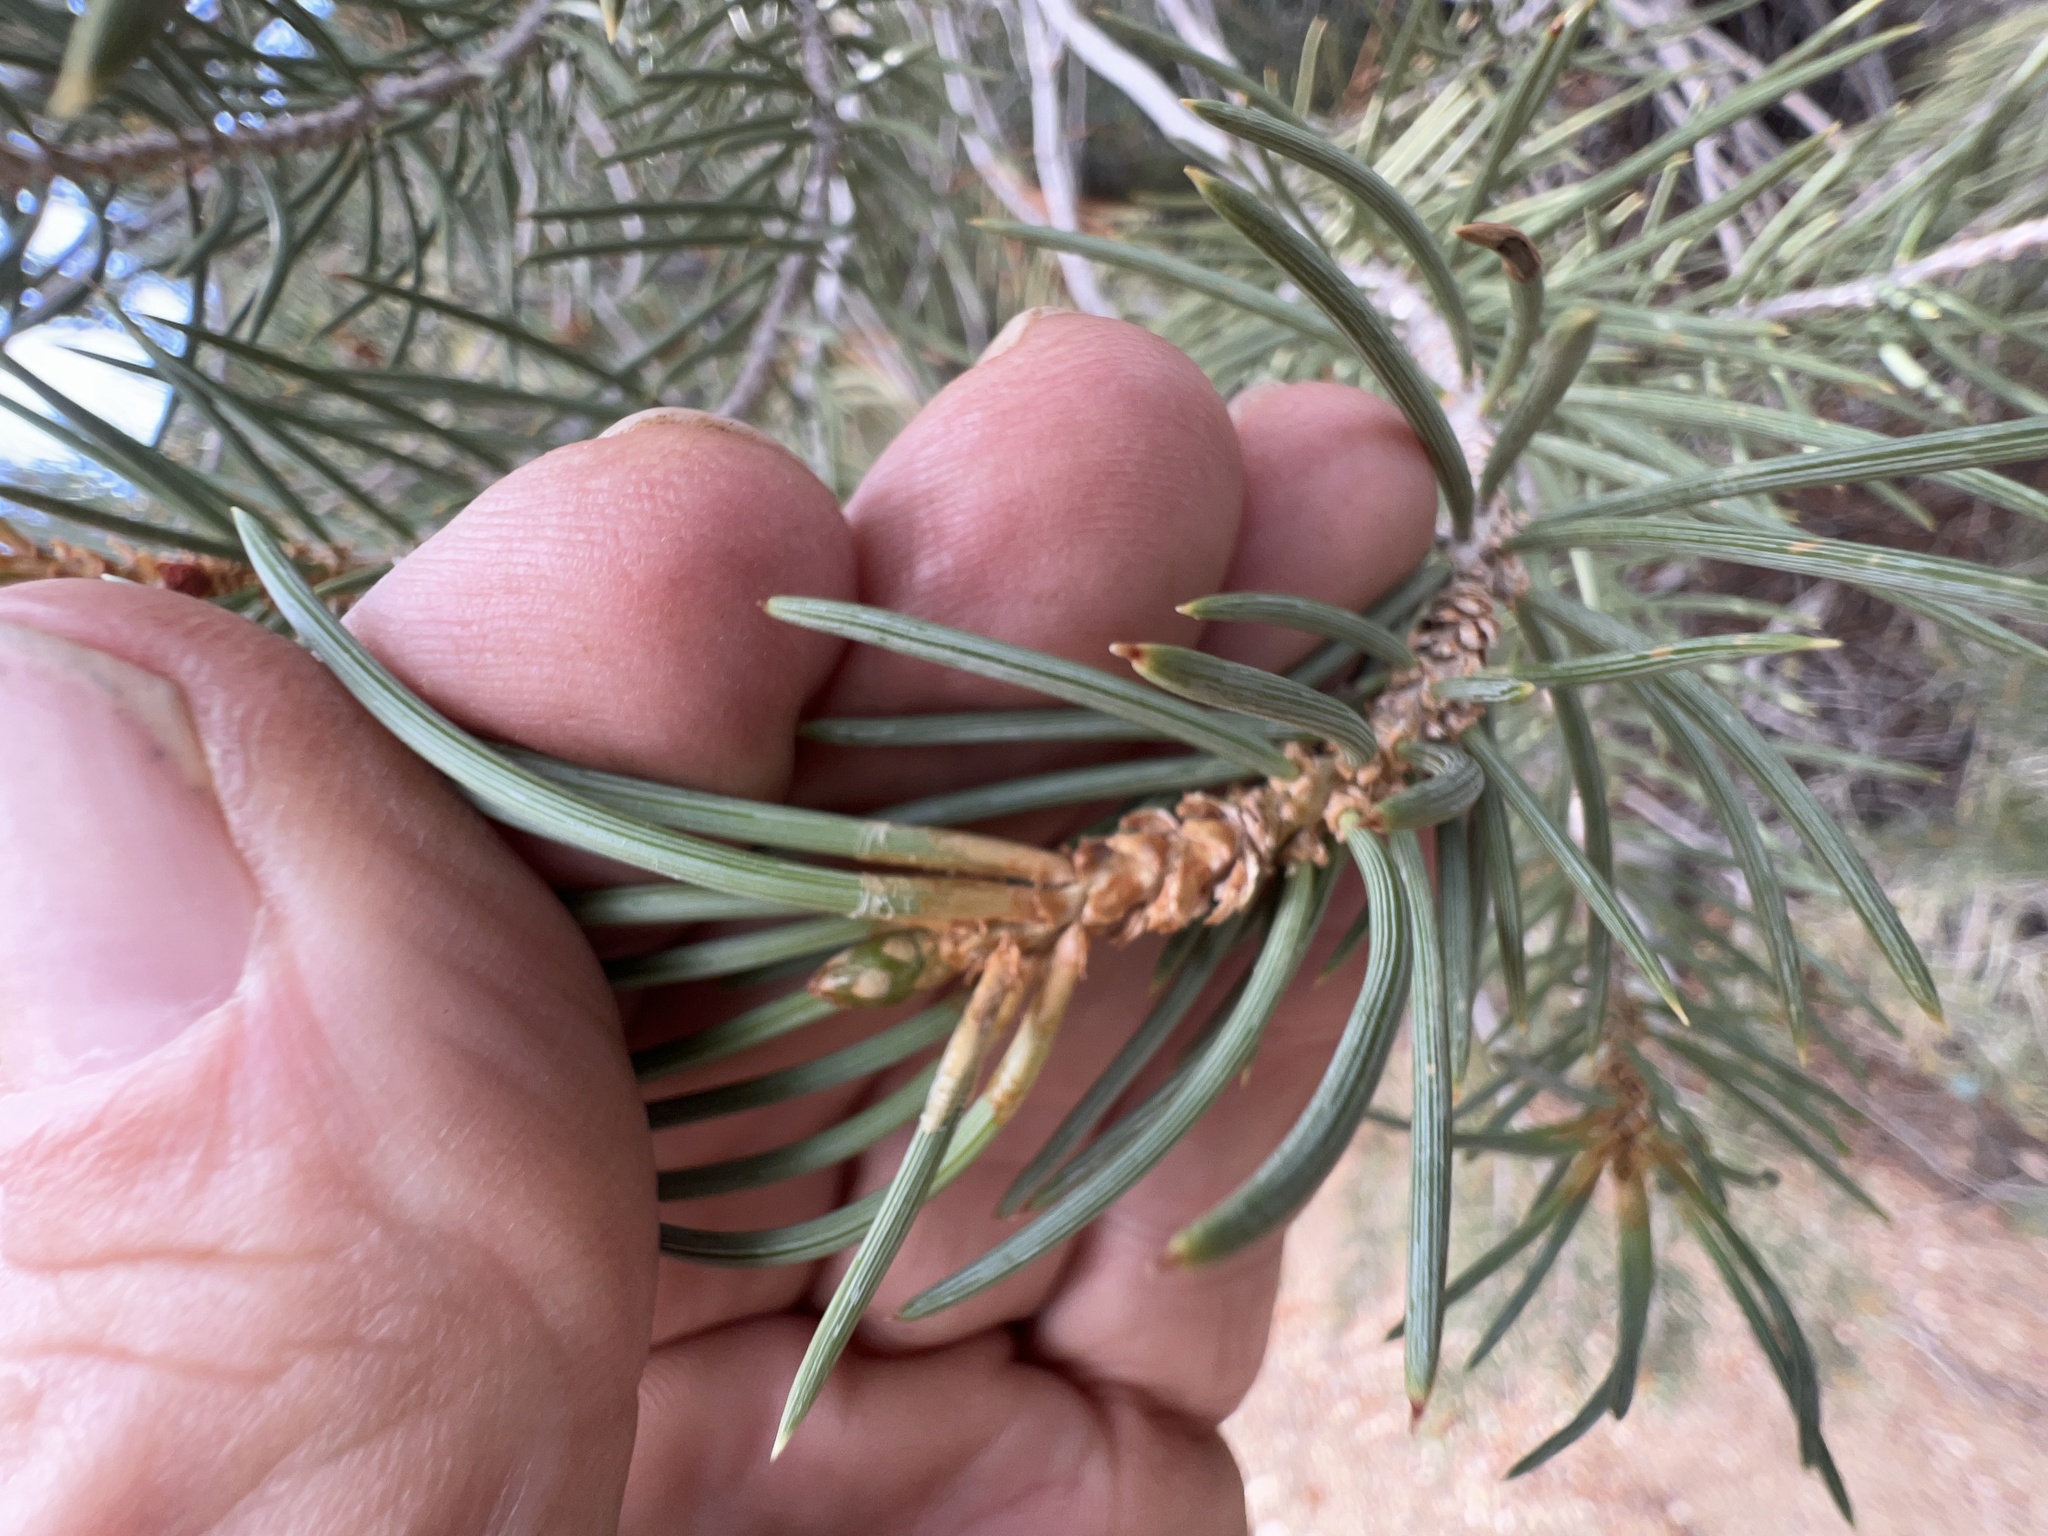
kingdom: Plantae
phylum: Tracheophyta
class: Pinopsida
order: Pinales
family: Pinaceae
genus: Pinus
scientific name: Pinus monophylla
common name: One-leaved nut pine
